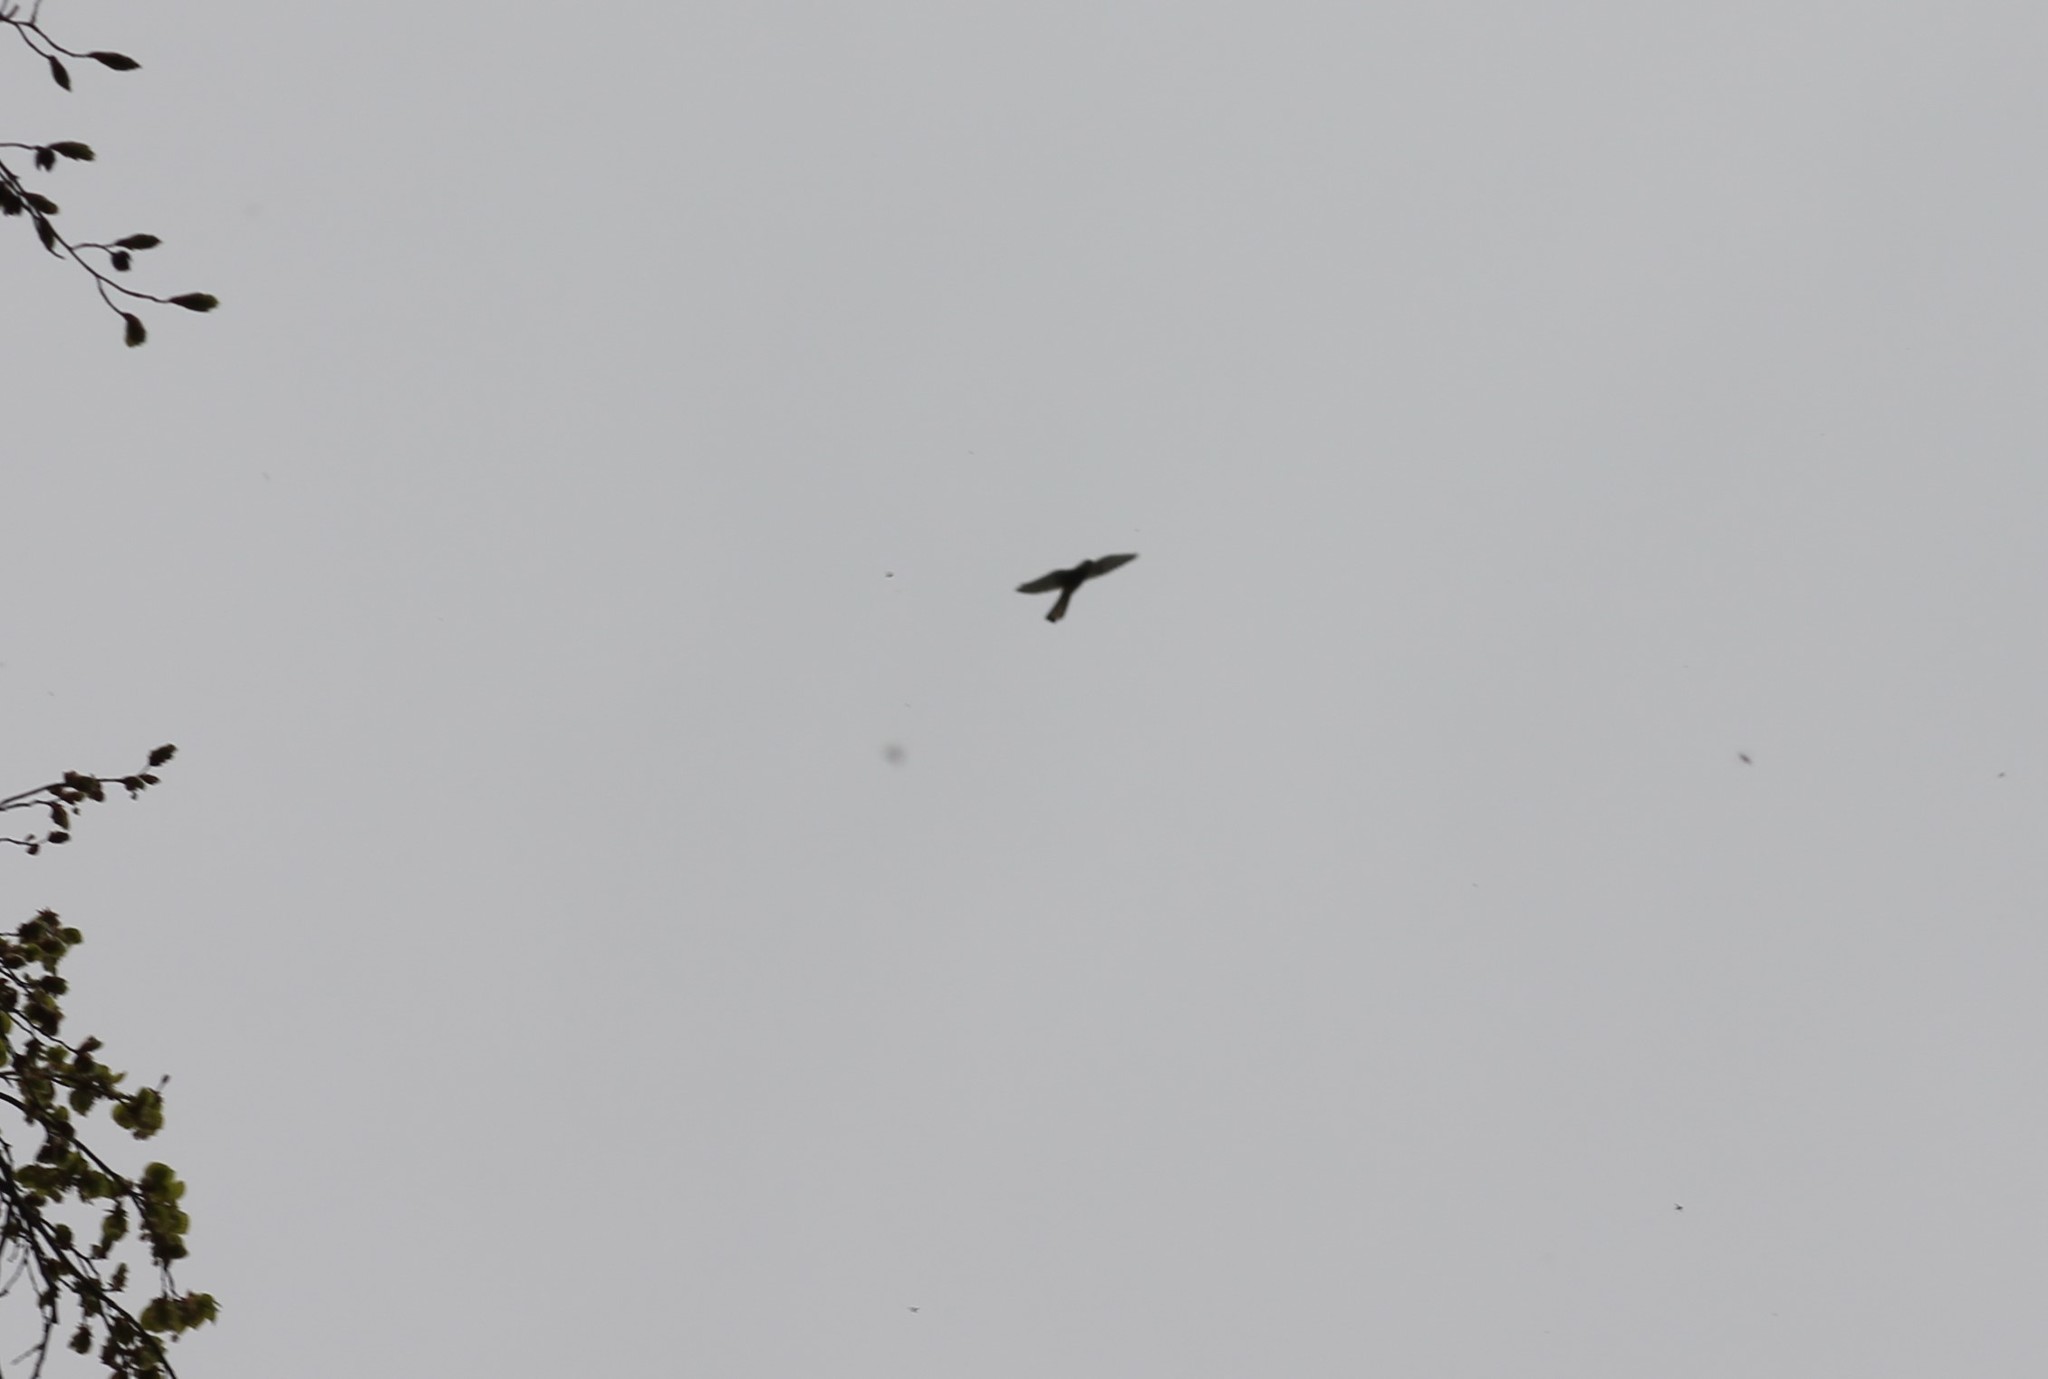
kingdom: Animalia
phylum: Chordata
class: Aves
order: Falconiformes
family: Falconidae
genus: Falco
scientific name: Falco tinnunculus
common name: Common kestrel
